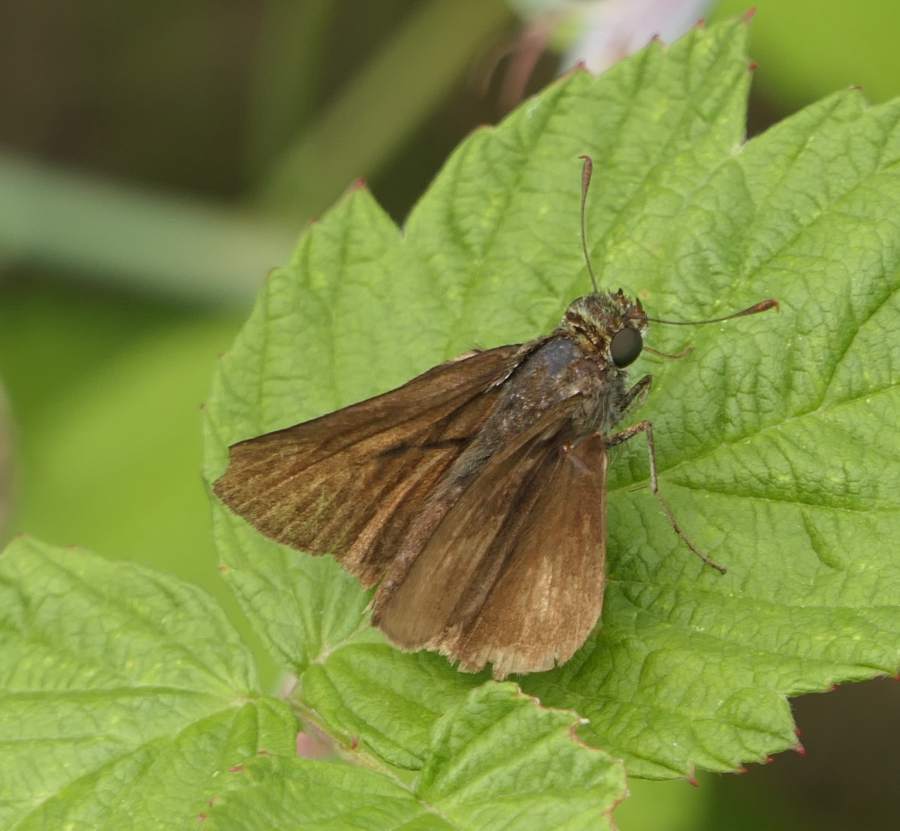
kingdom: Animalia
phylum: Arthropoda
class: Insecta
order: Lepidoptera
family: Hesperiidae
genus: Euphyes
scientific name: Euphyes vestris
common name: Dun skipper
